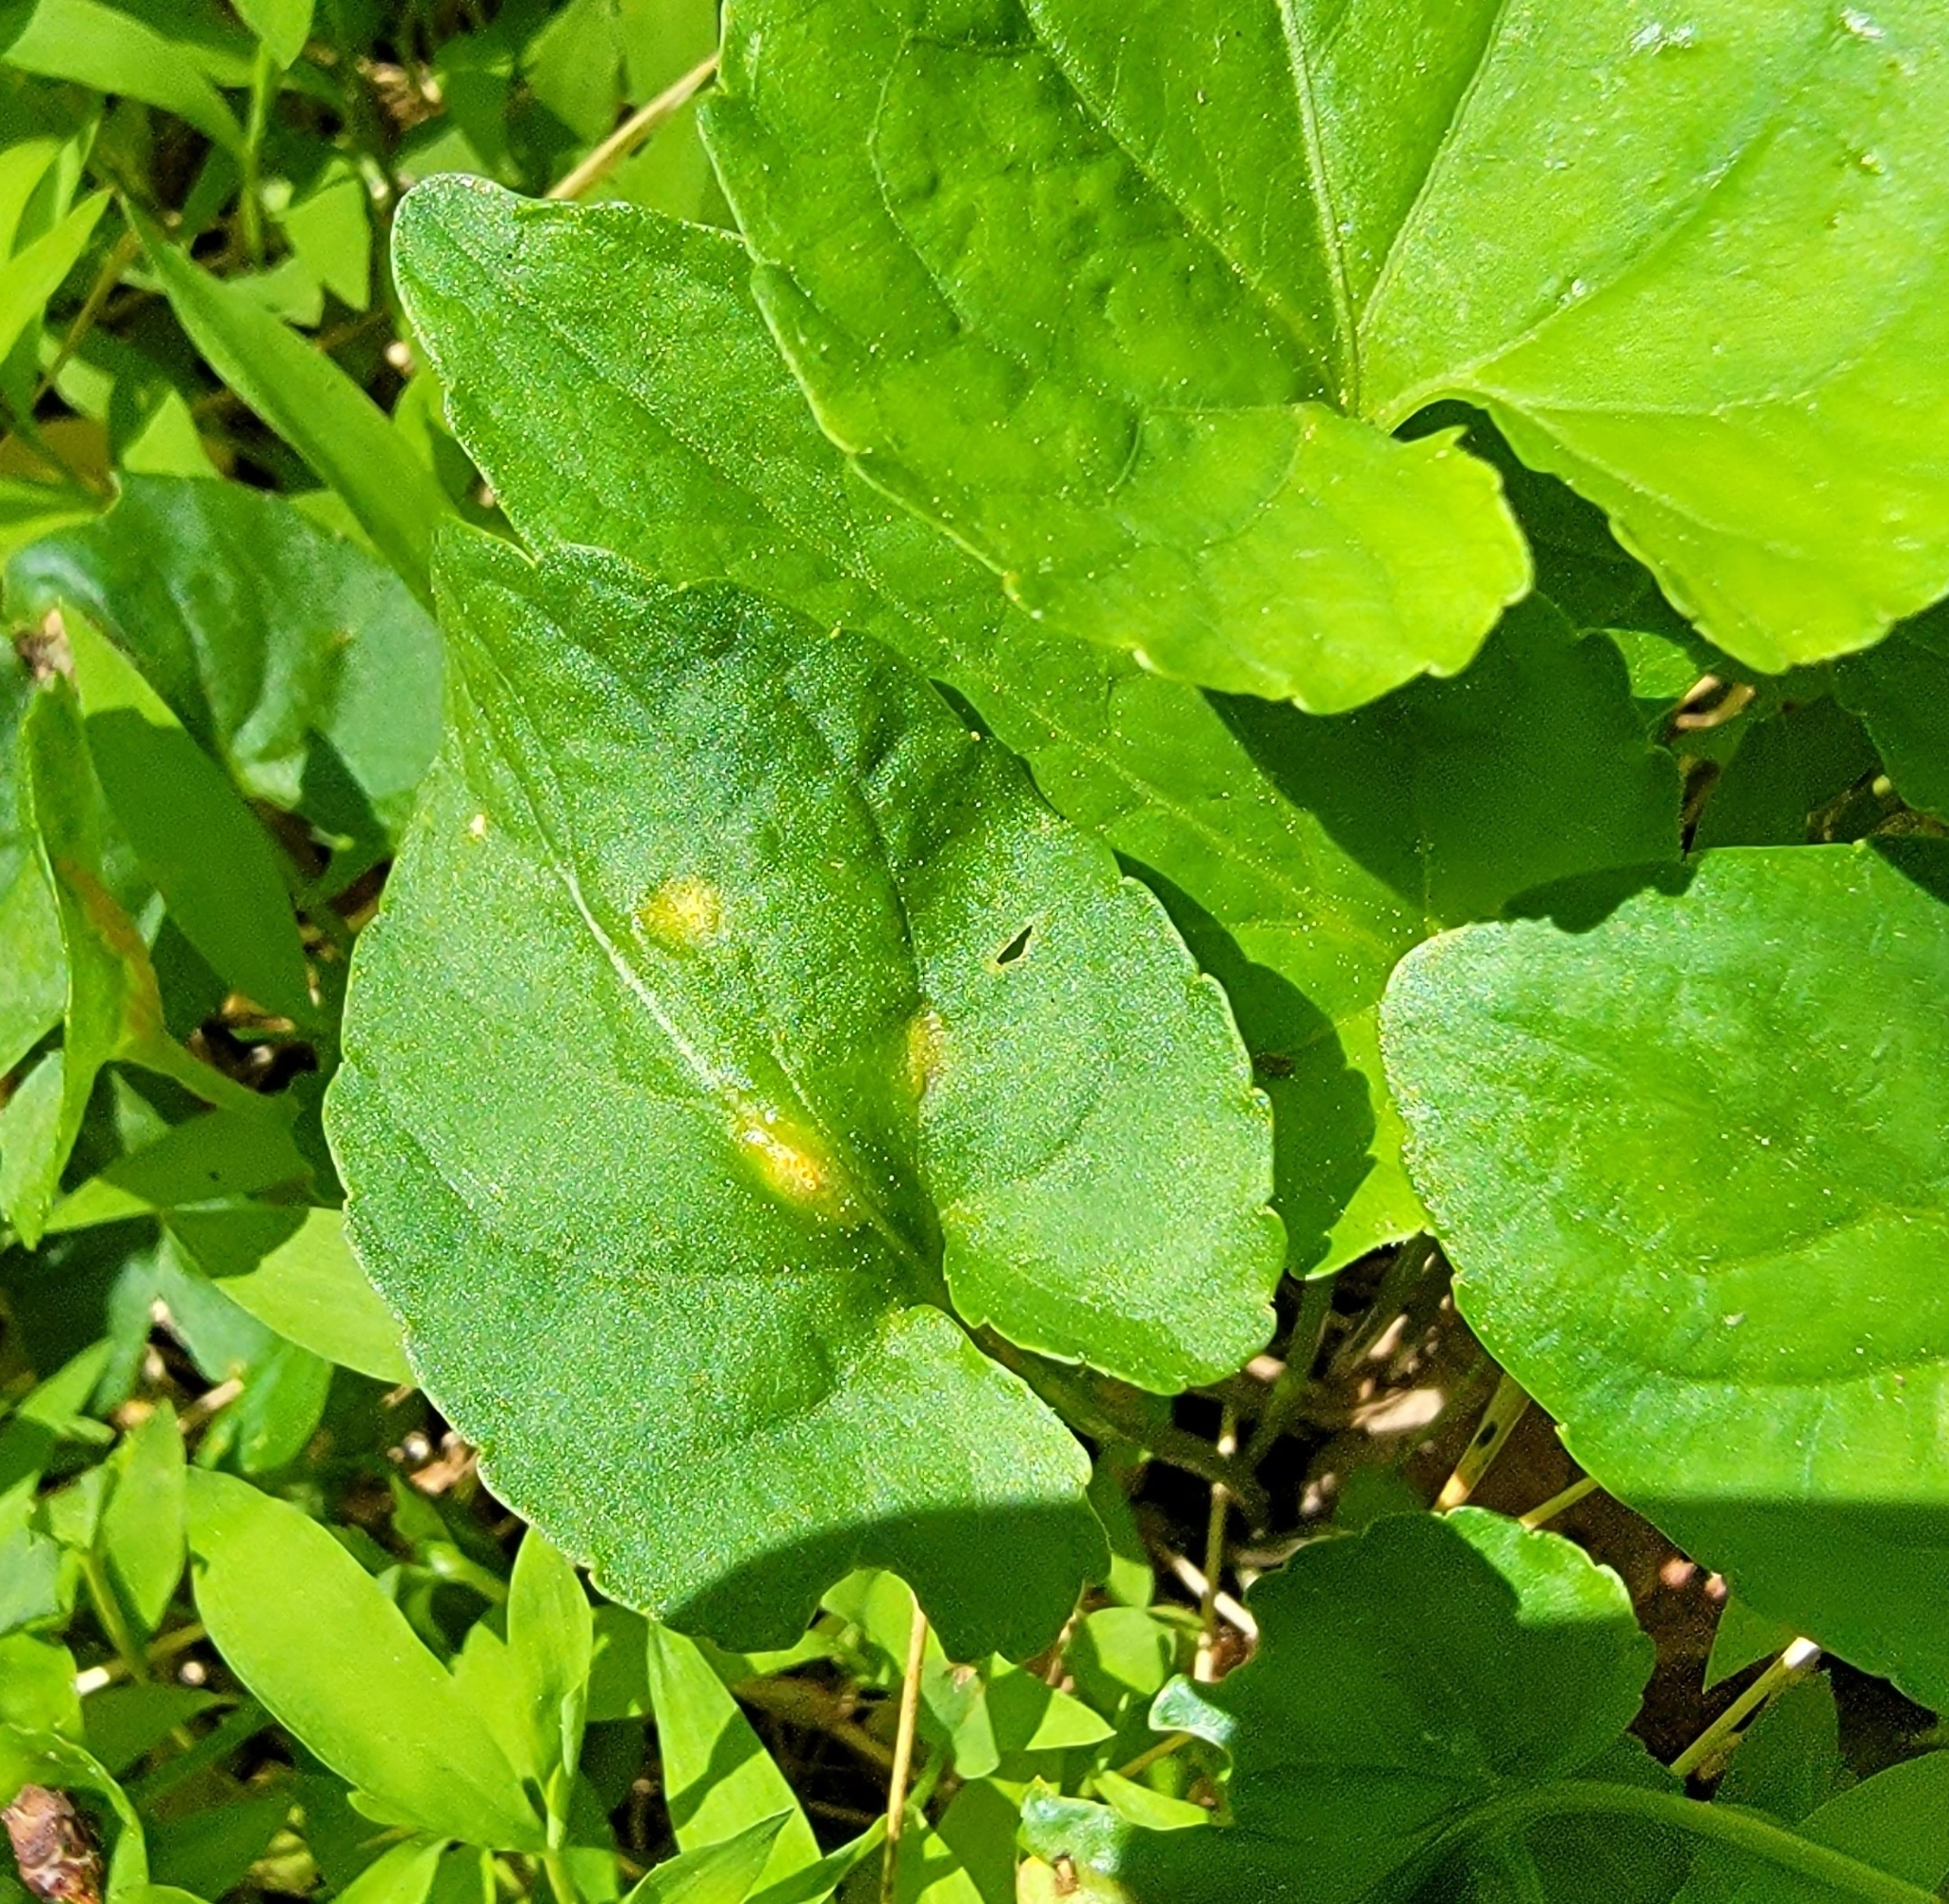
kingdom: Fungi
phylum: Basidiomycota
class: Pucciniomycetes
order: Pucciniales
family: Pucciniaceae
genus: Puccinia
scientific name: Puccinia violae
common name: Violet rust
